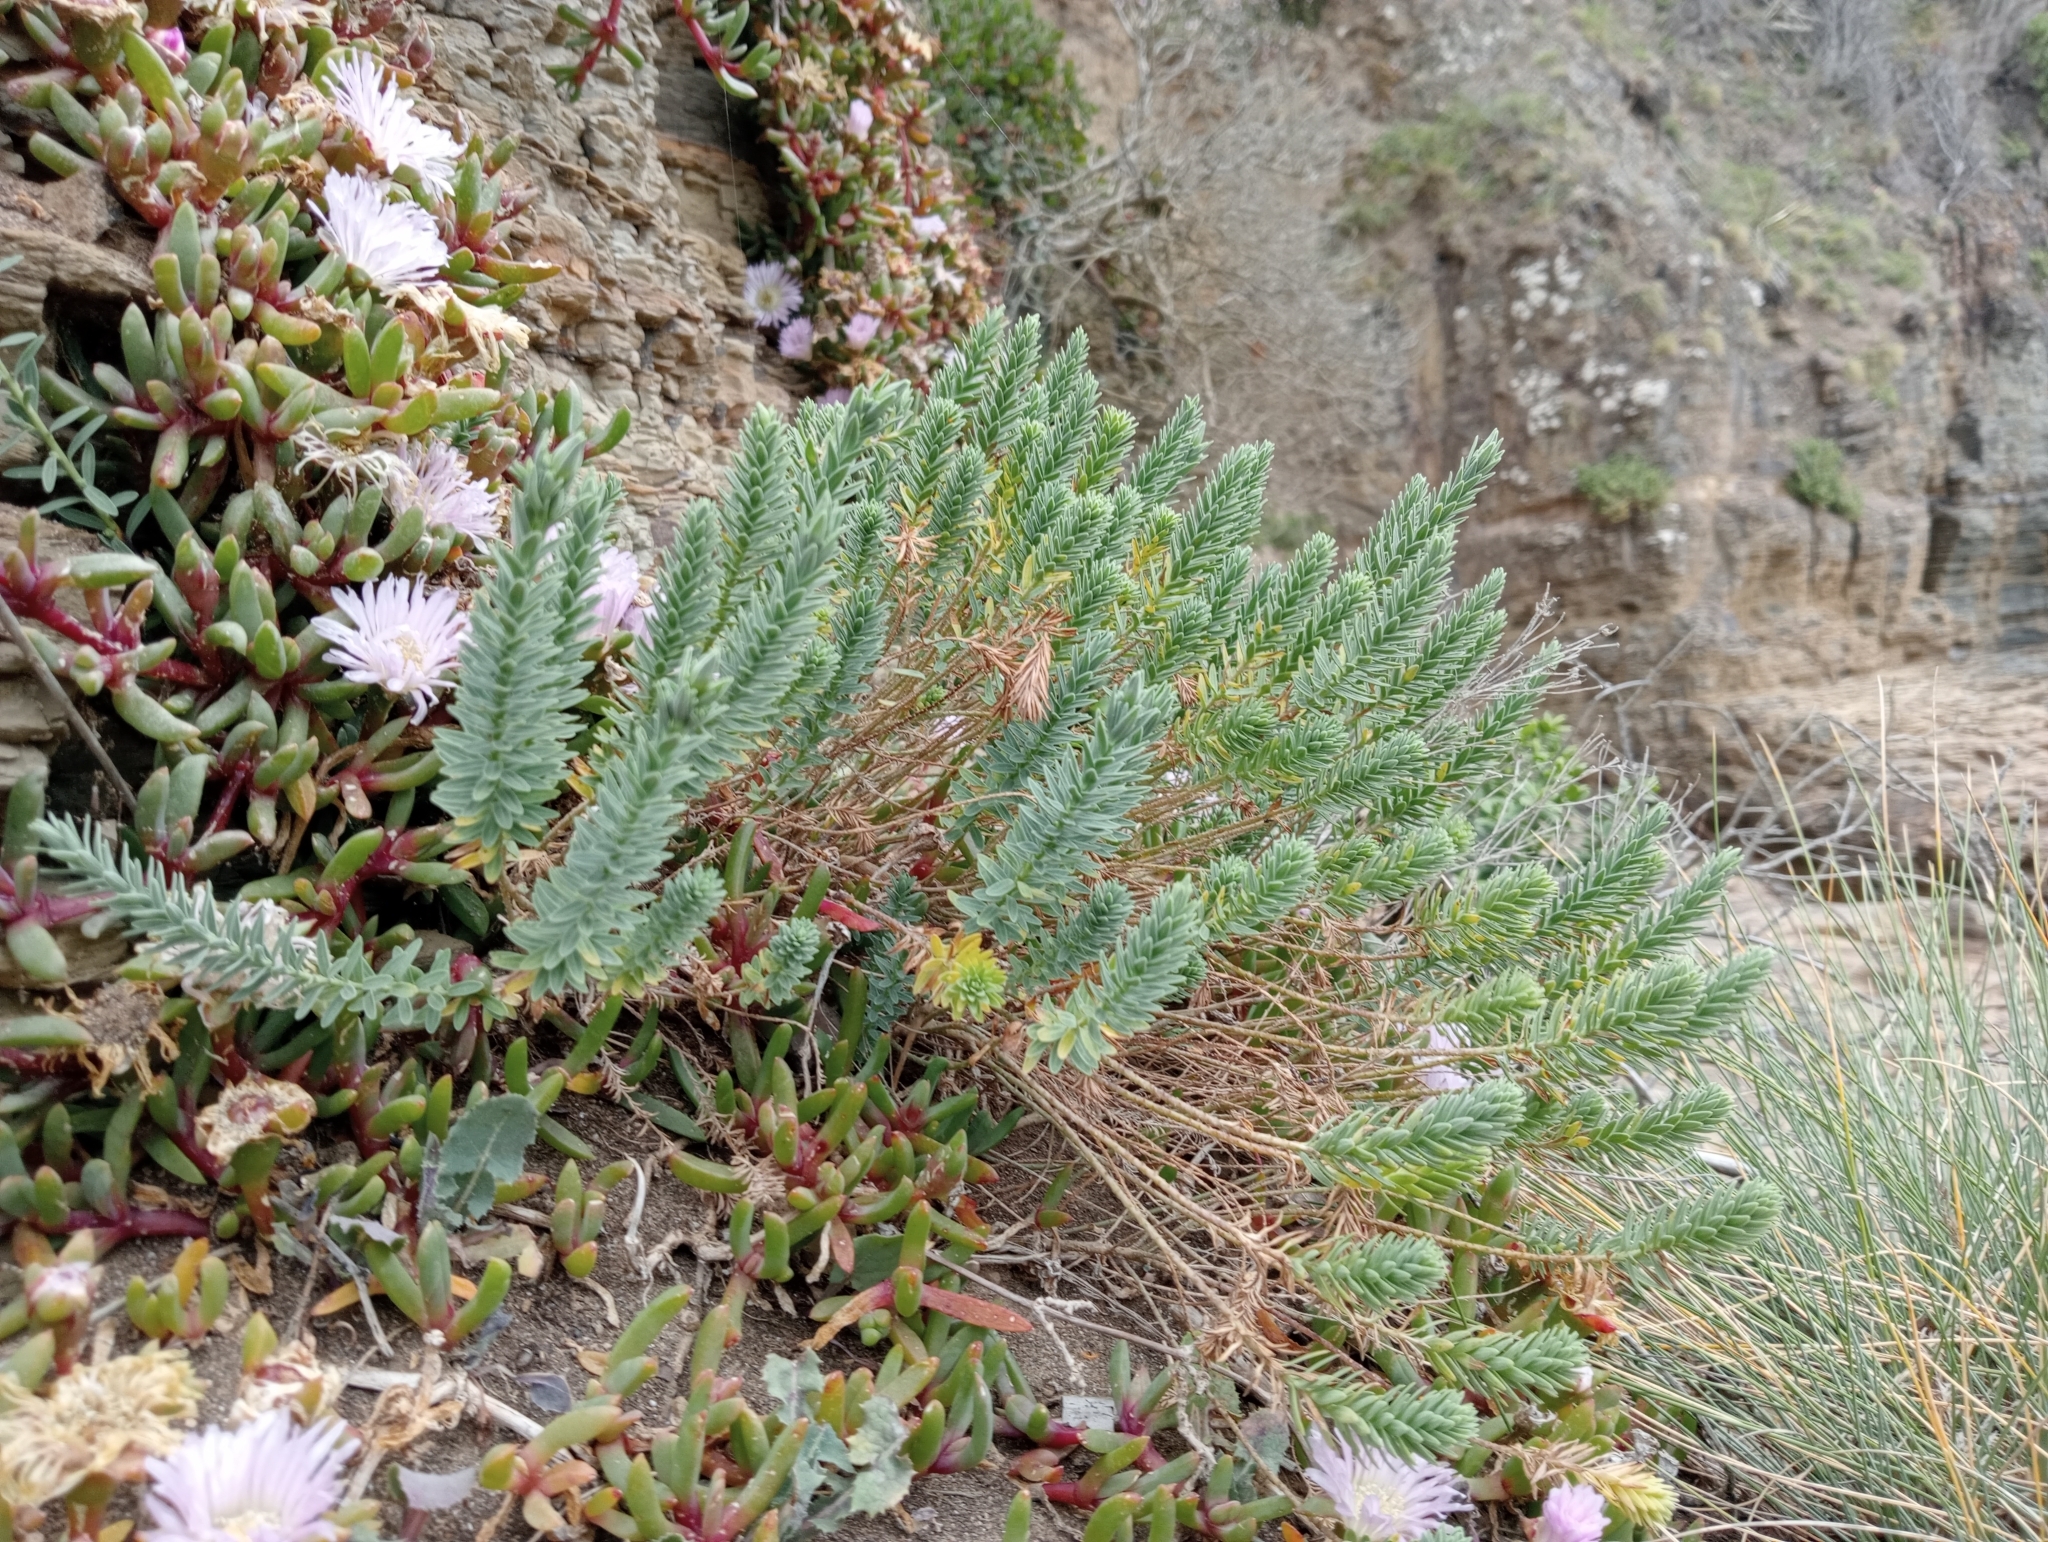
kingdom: Plantae
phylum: Tracheophyta
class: Magnoliopsida
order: Malpighiales
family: Linaceae
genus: Linum
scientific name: Linum monogynum
